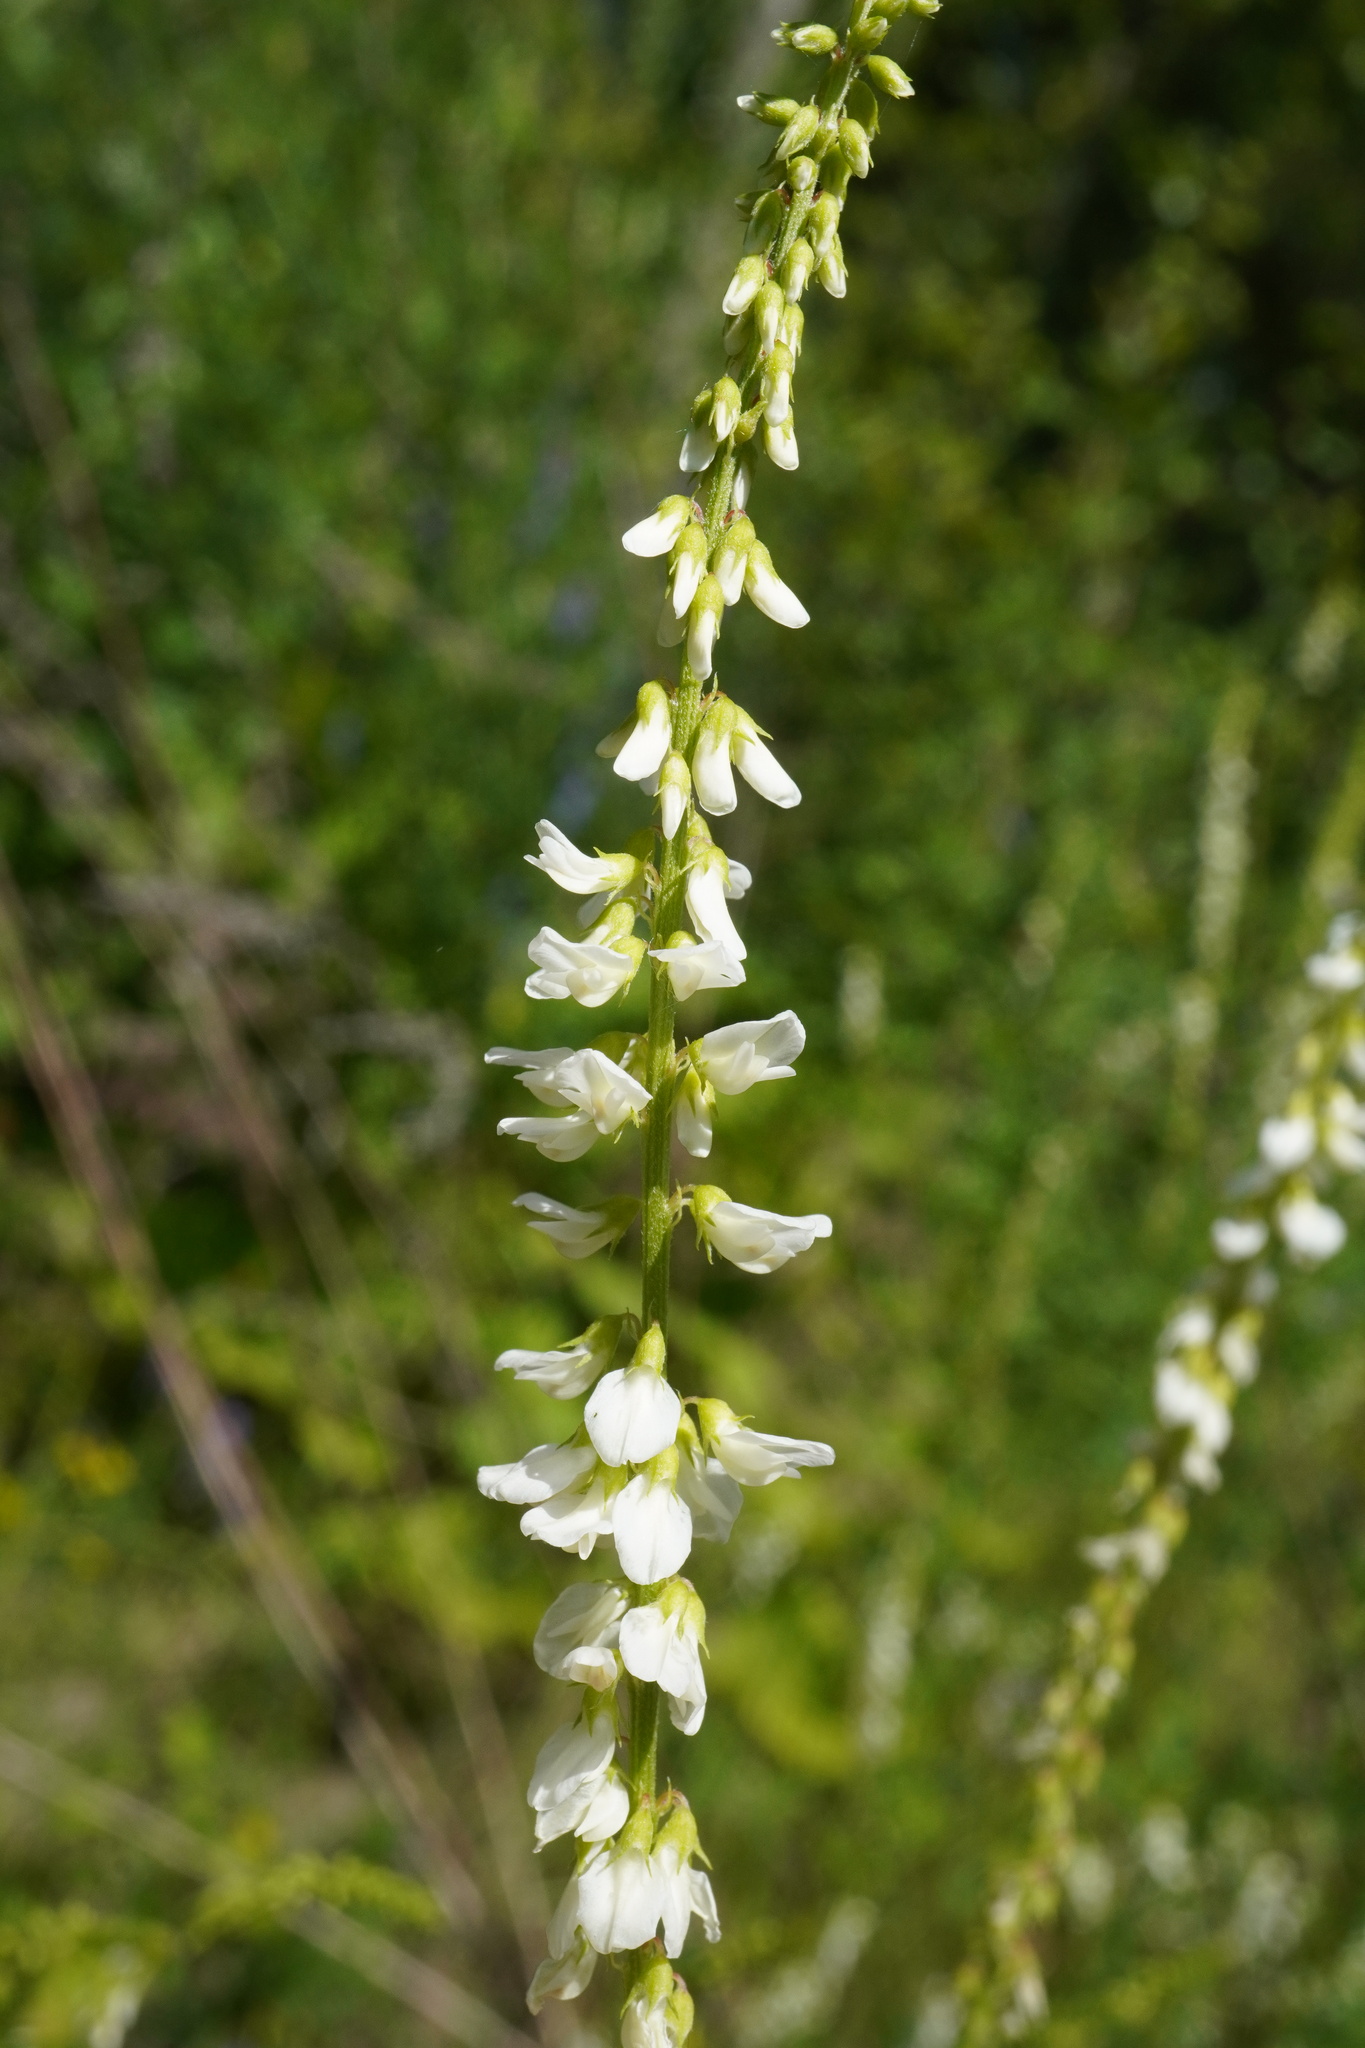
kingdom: Plantae
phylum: Tracheophyta
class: Magnoliopsida
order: Fabales
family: Fabaceae
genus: Melilotus
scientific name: Melilotus albus
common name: White melilot
